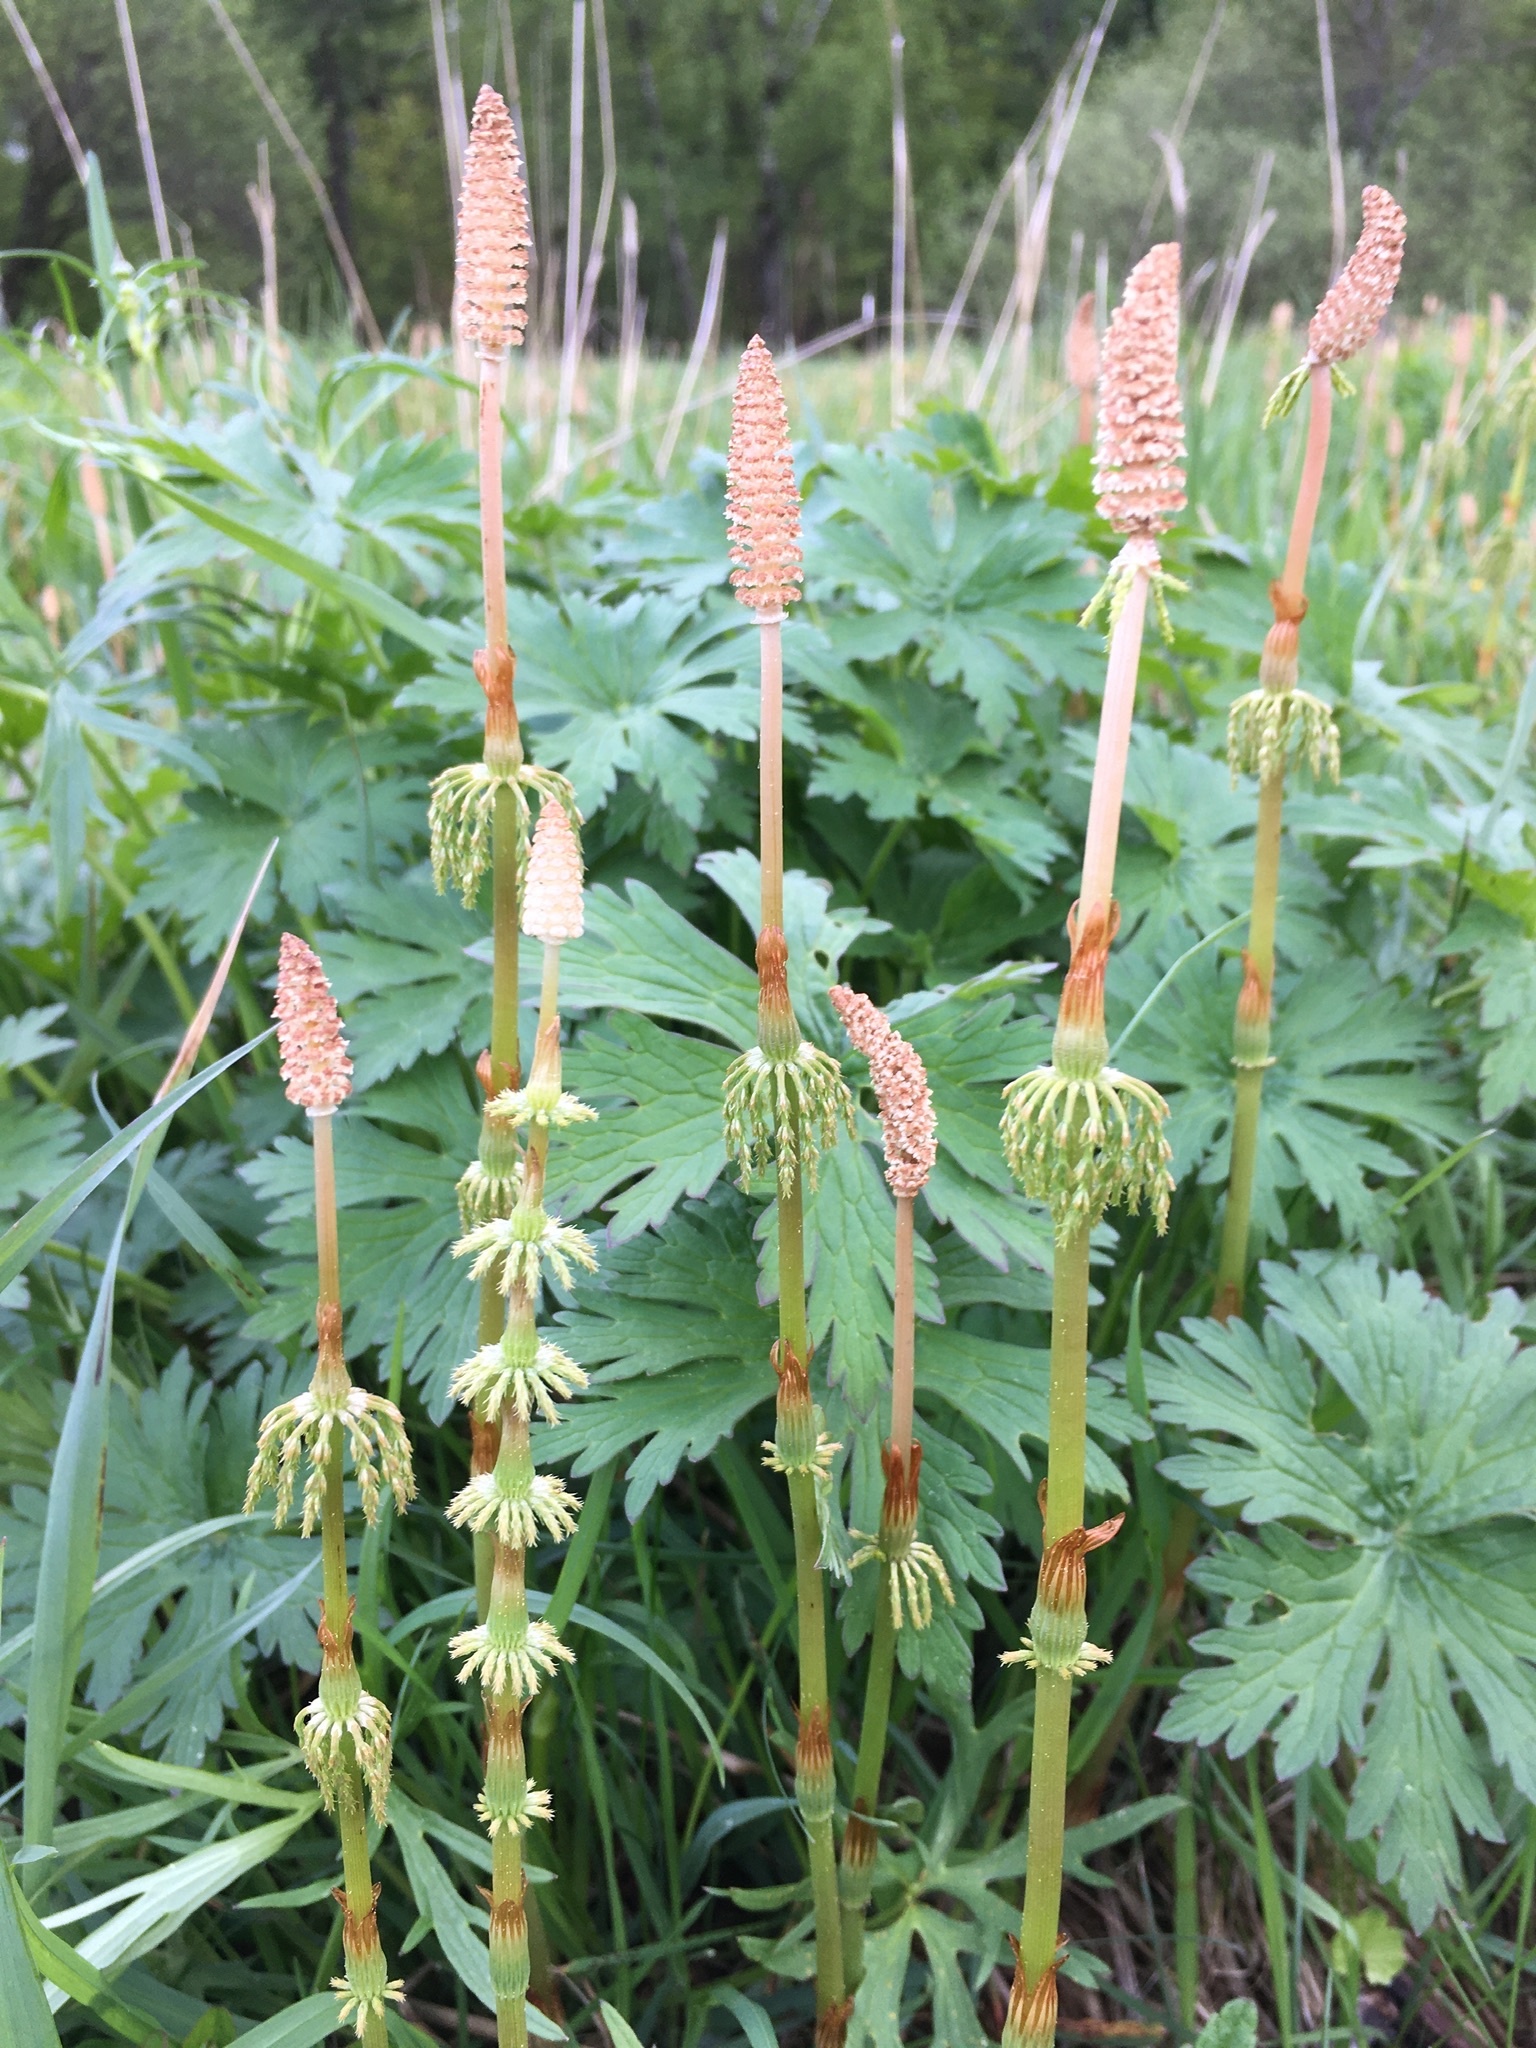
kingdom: Plantae
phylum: Tracheophyta
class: Polypodiopsida
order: Equisetales
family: Equisetaceae
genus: Equisetum
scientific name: Equisetum sylvaticum
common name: Wood horsetail
